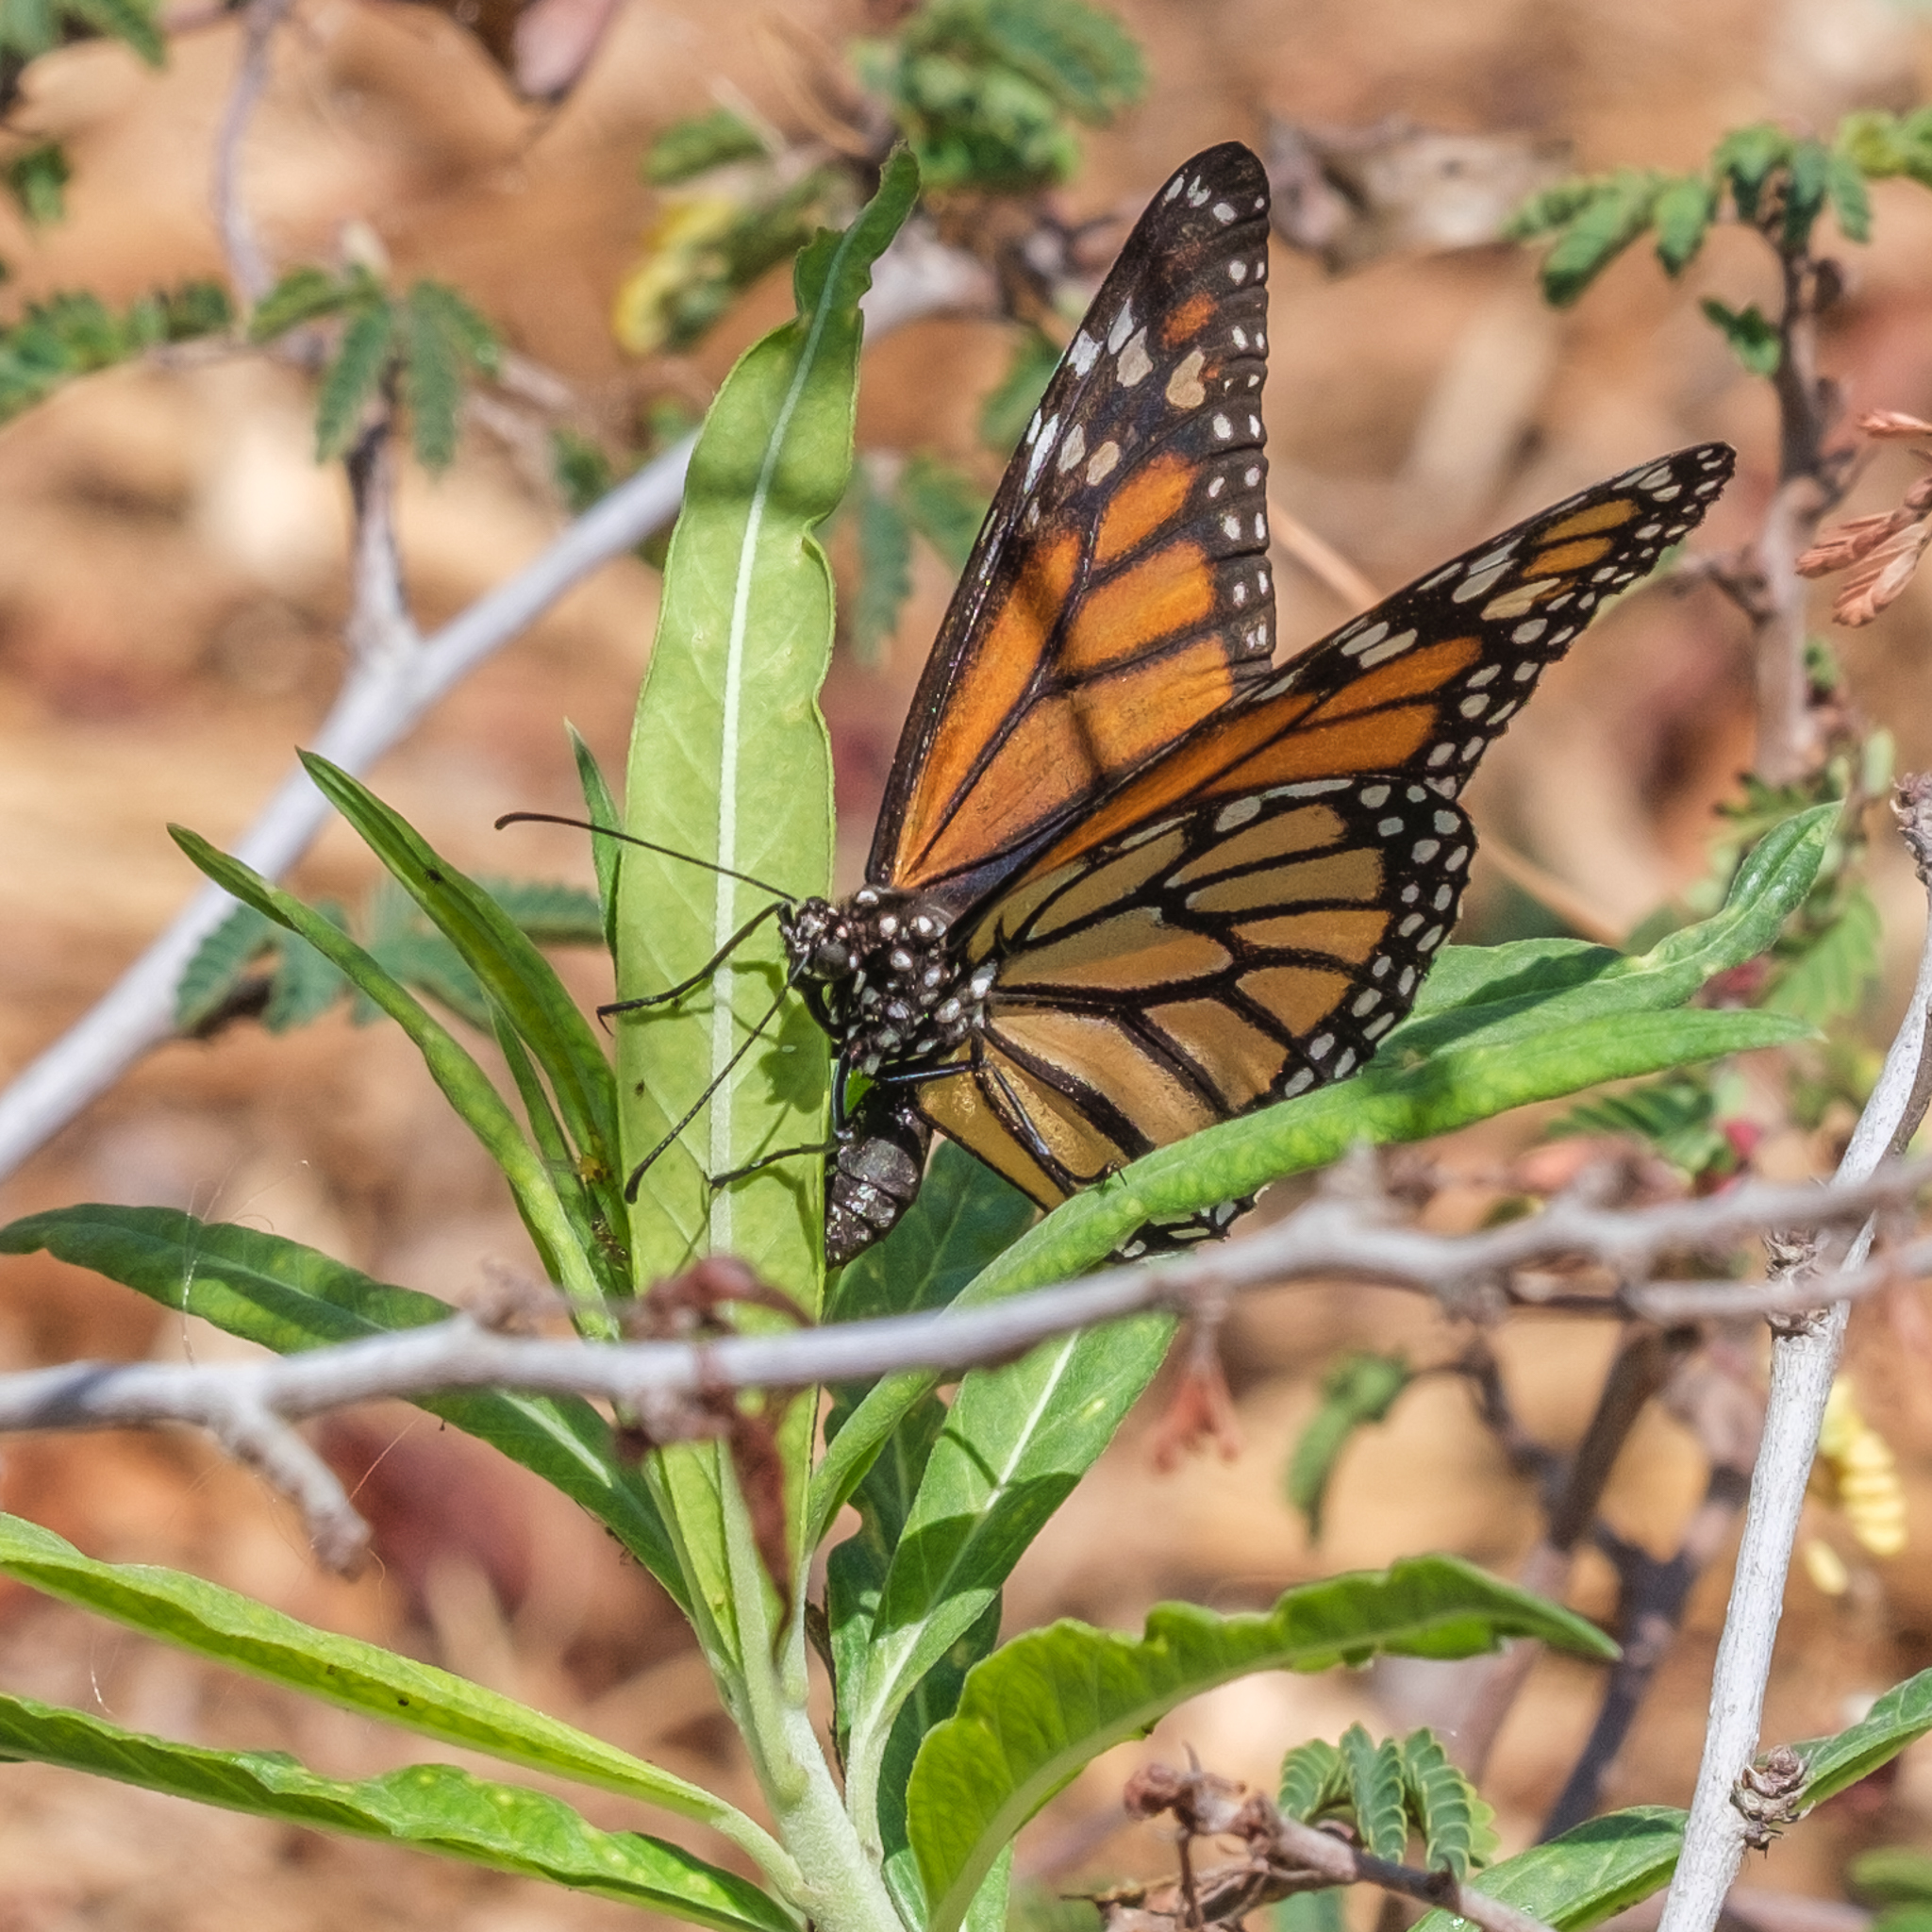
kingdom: Animalia
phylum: Arthropoda
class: Insecta
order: Lepidoptera
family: Nymphalidae
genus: Danaus
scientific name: Danaus plexippus
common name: Monarch
